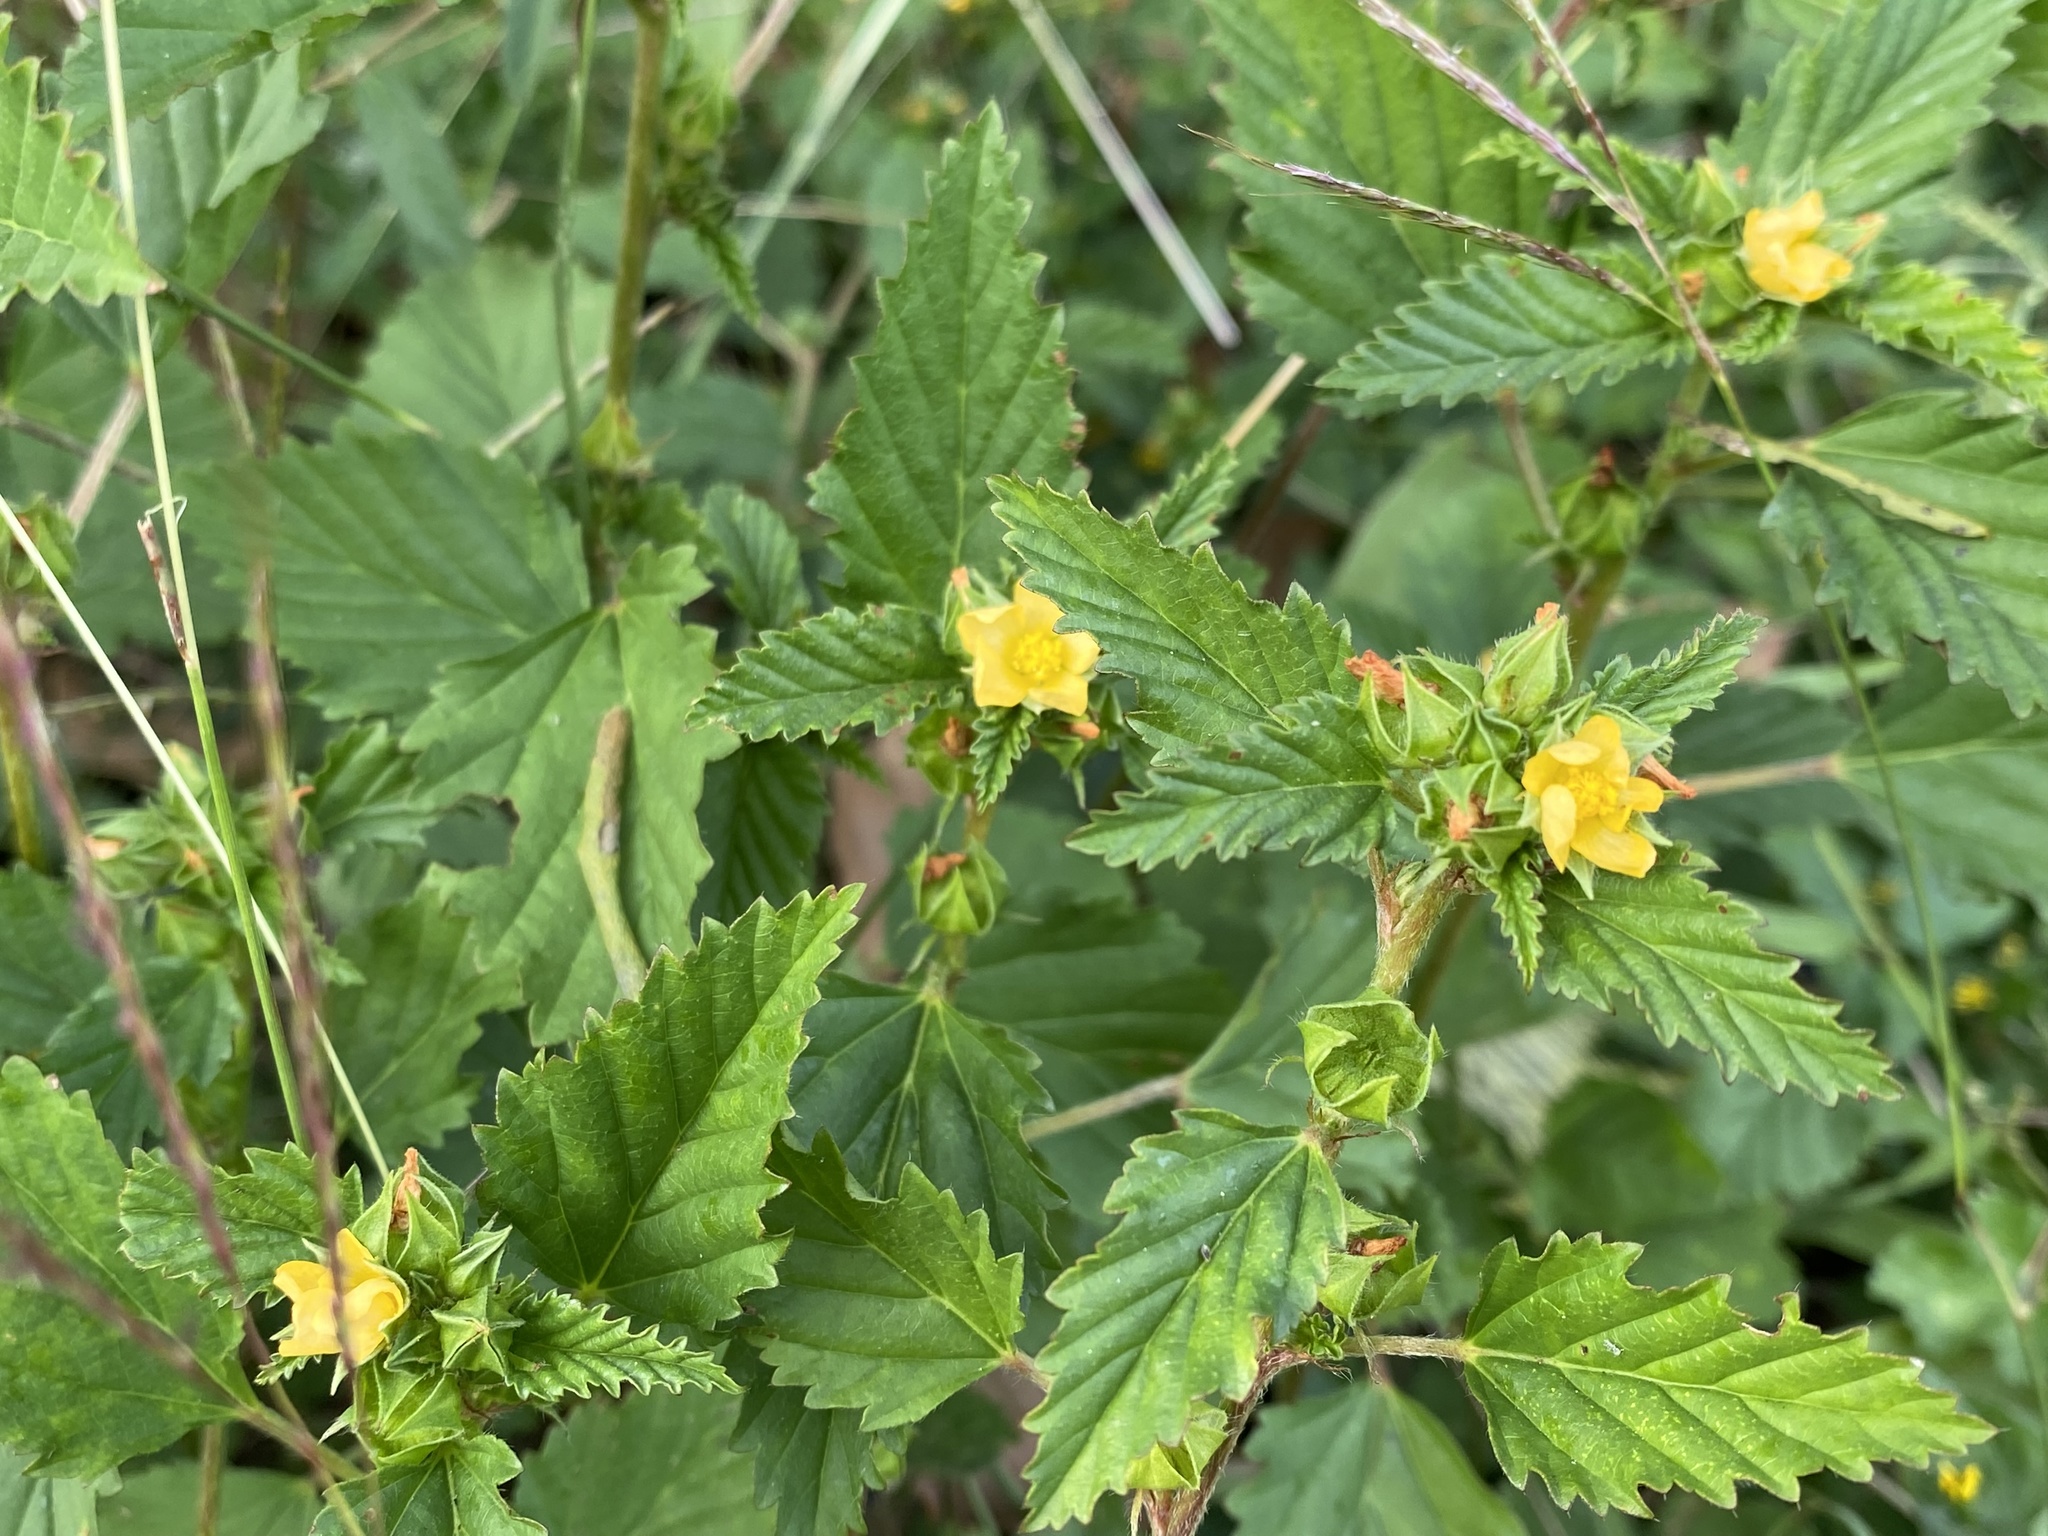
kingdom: Plantae
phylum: Tracheophyta
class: Magnoliopsida
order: Malvales
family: Malvaceae
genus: Malvastrum
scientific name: Malvastrum coromandelianum
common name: Threelobe false mallow
